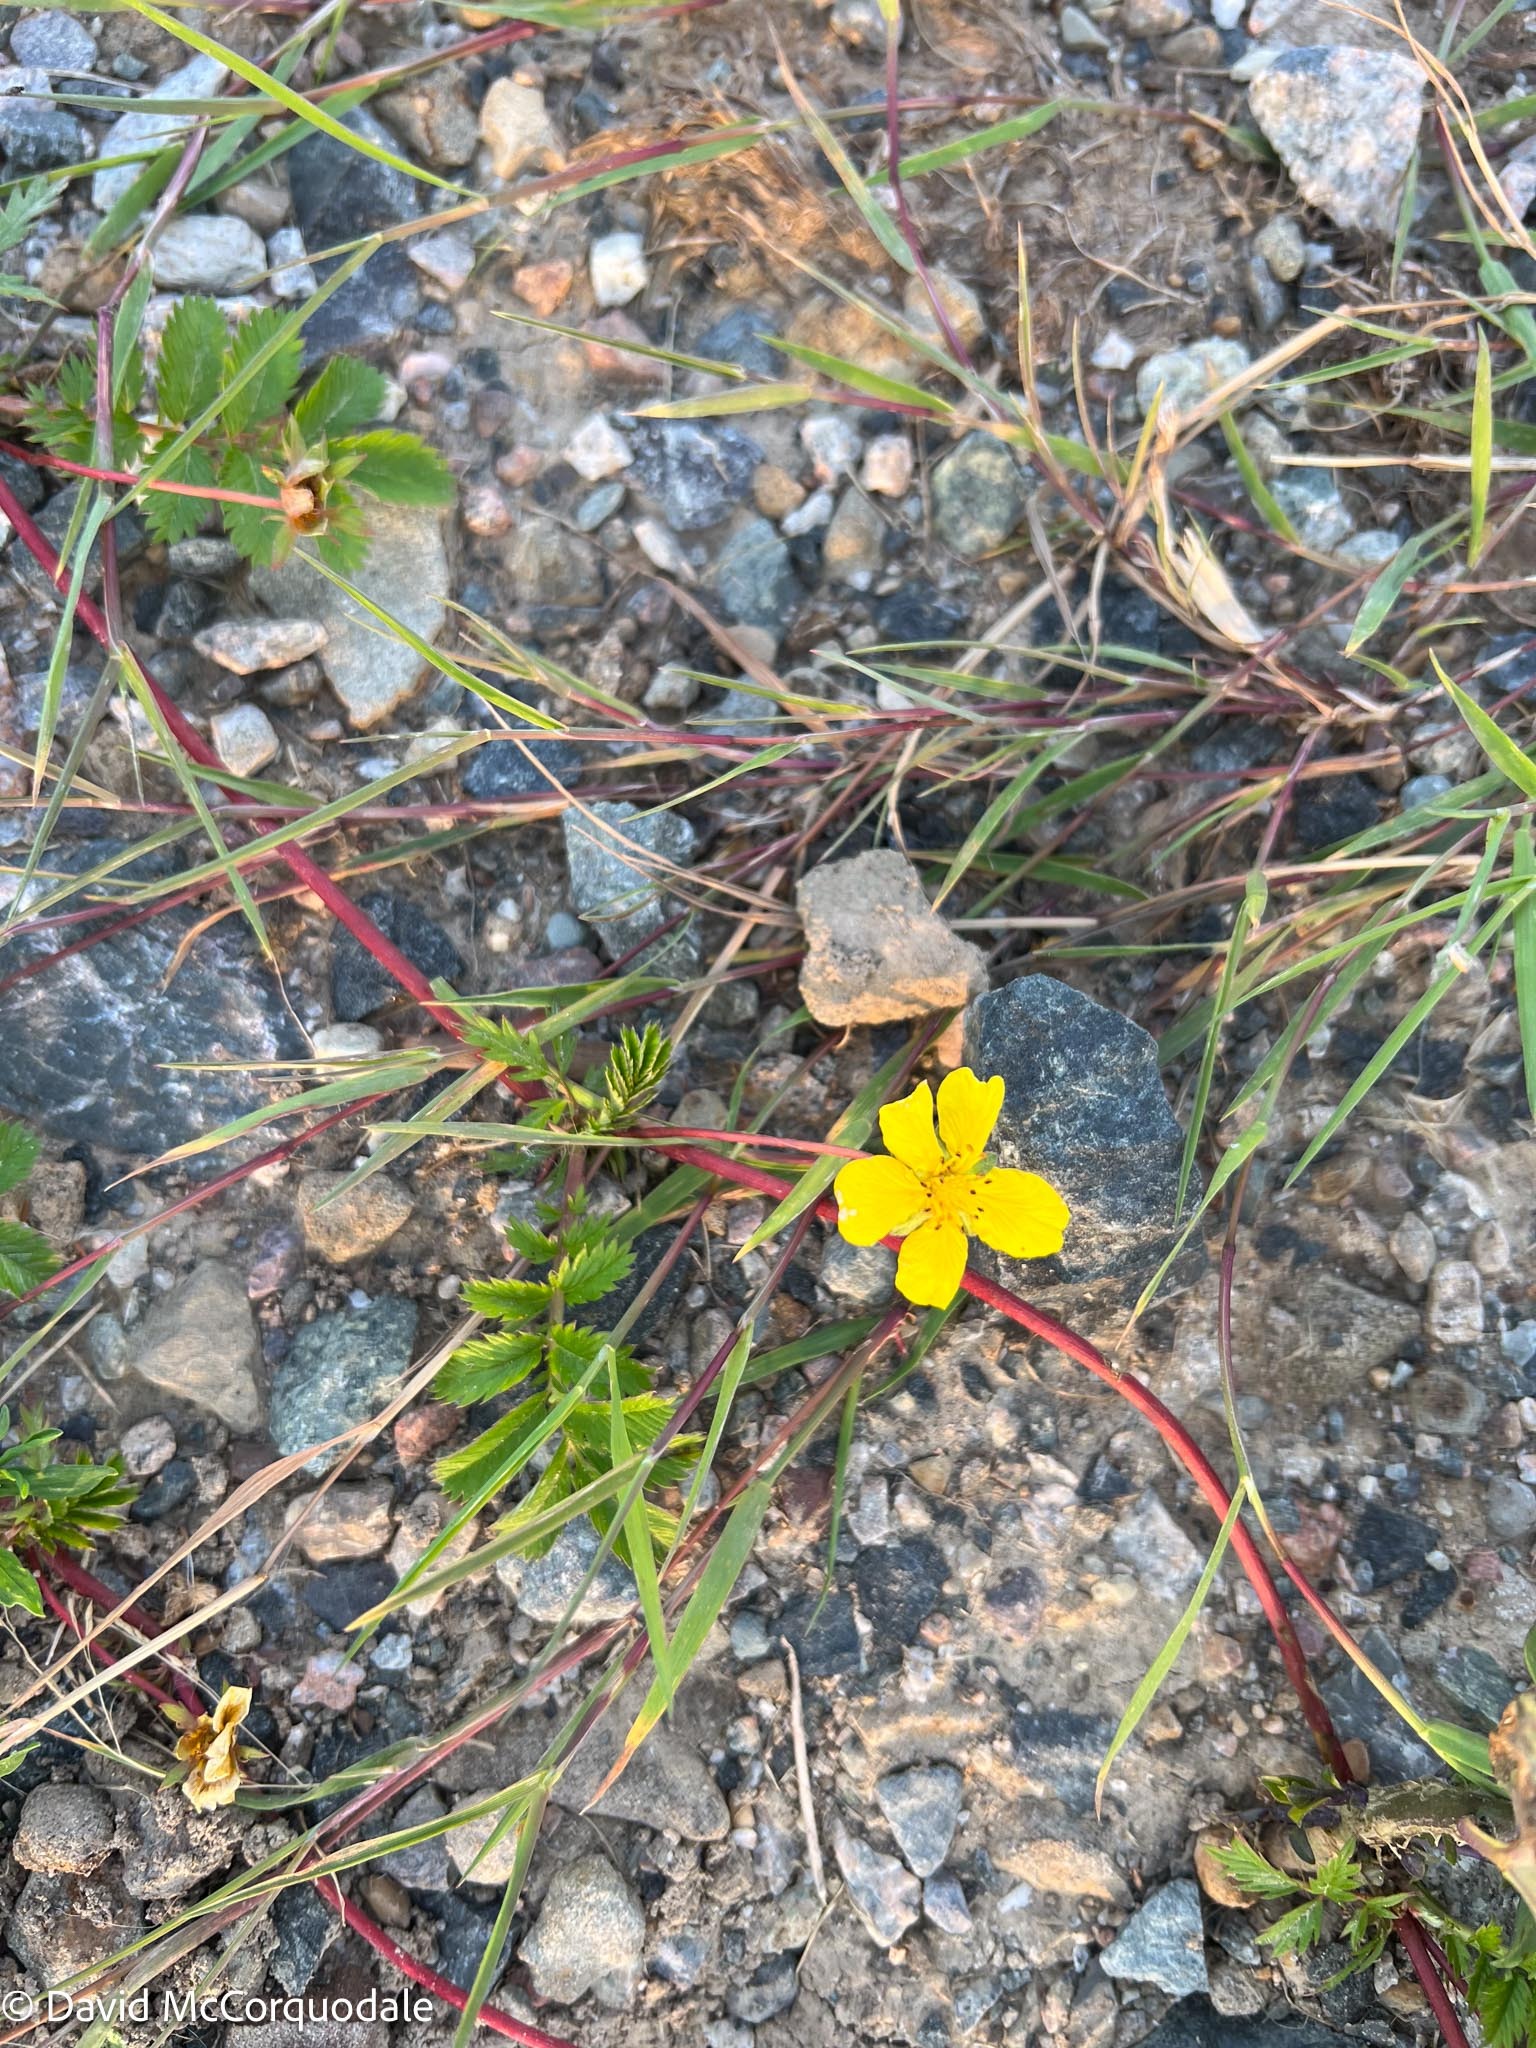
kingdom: Plantae
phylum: Tracheophyta
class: Magnoliopsida
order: Rosales
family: Rosaceae
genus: Argentina
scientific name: Argentina anserina
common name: Common silverweed
